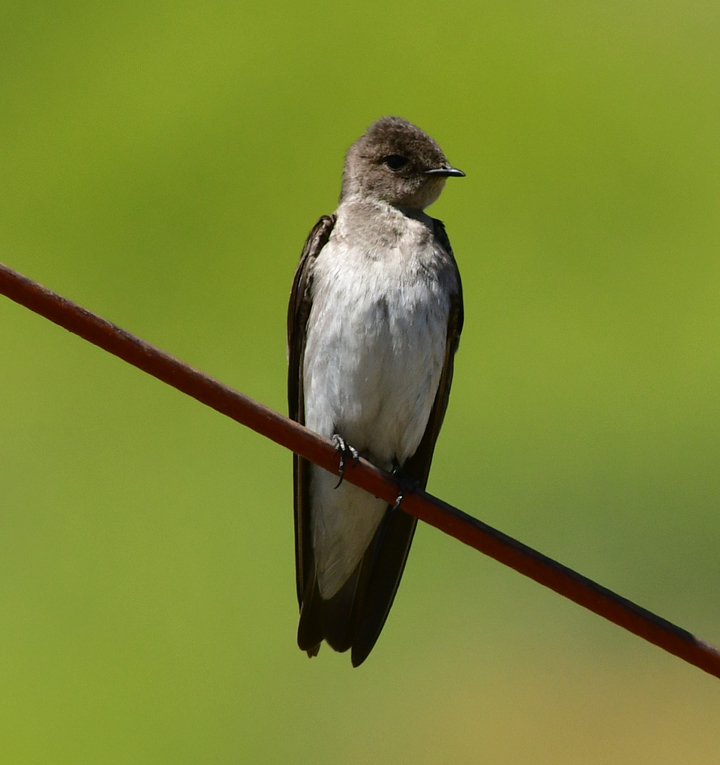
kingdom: Animalia
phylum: Chordata
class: Aves
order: Passeriformes
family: Hirundinidae
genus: Stelgidopteryx
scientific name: Stelgidopteryx serripennis
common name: Northern rough-winged swallow
